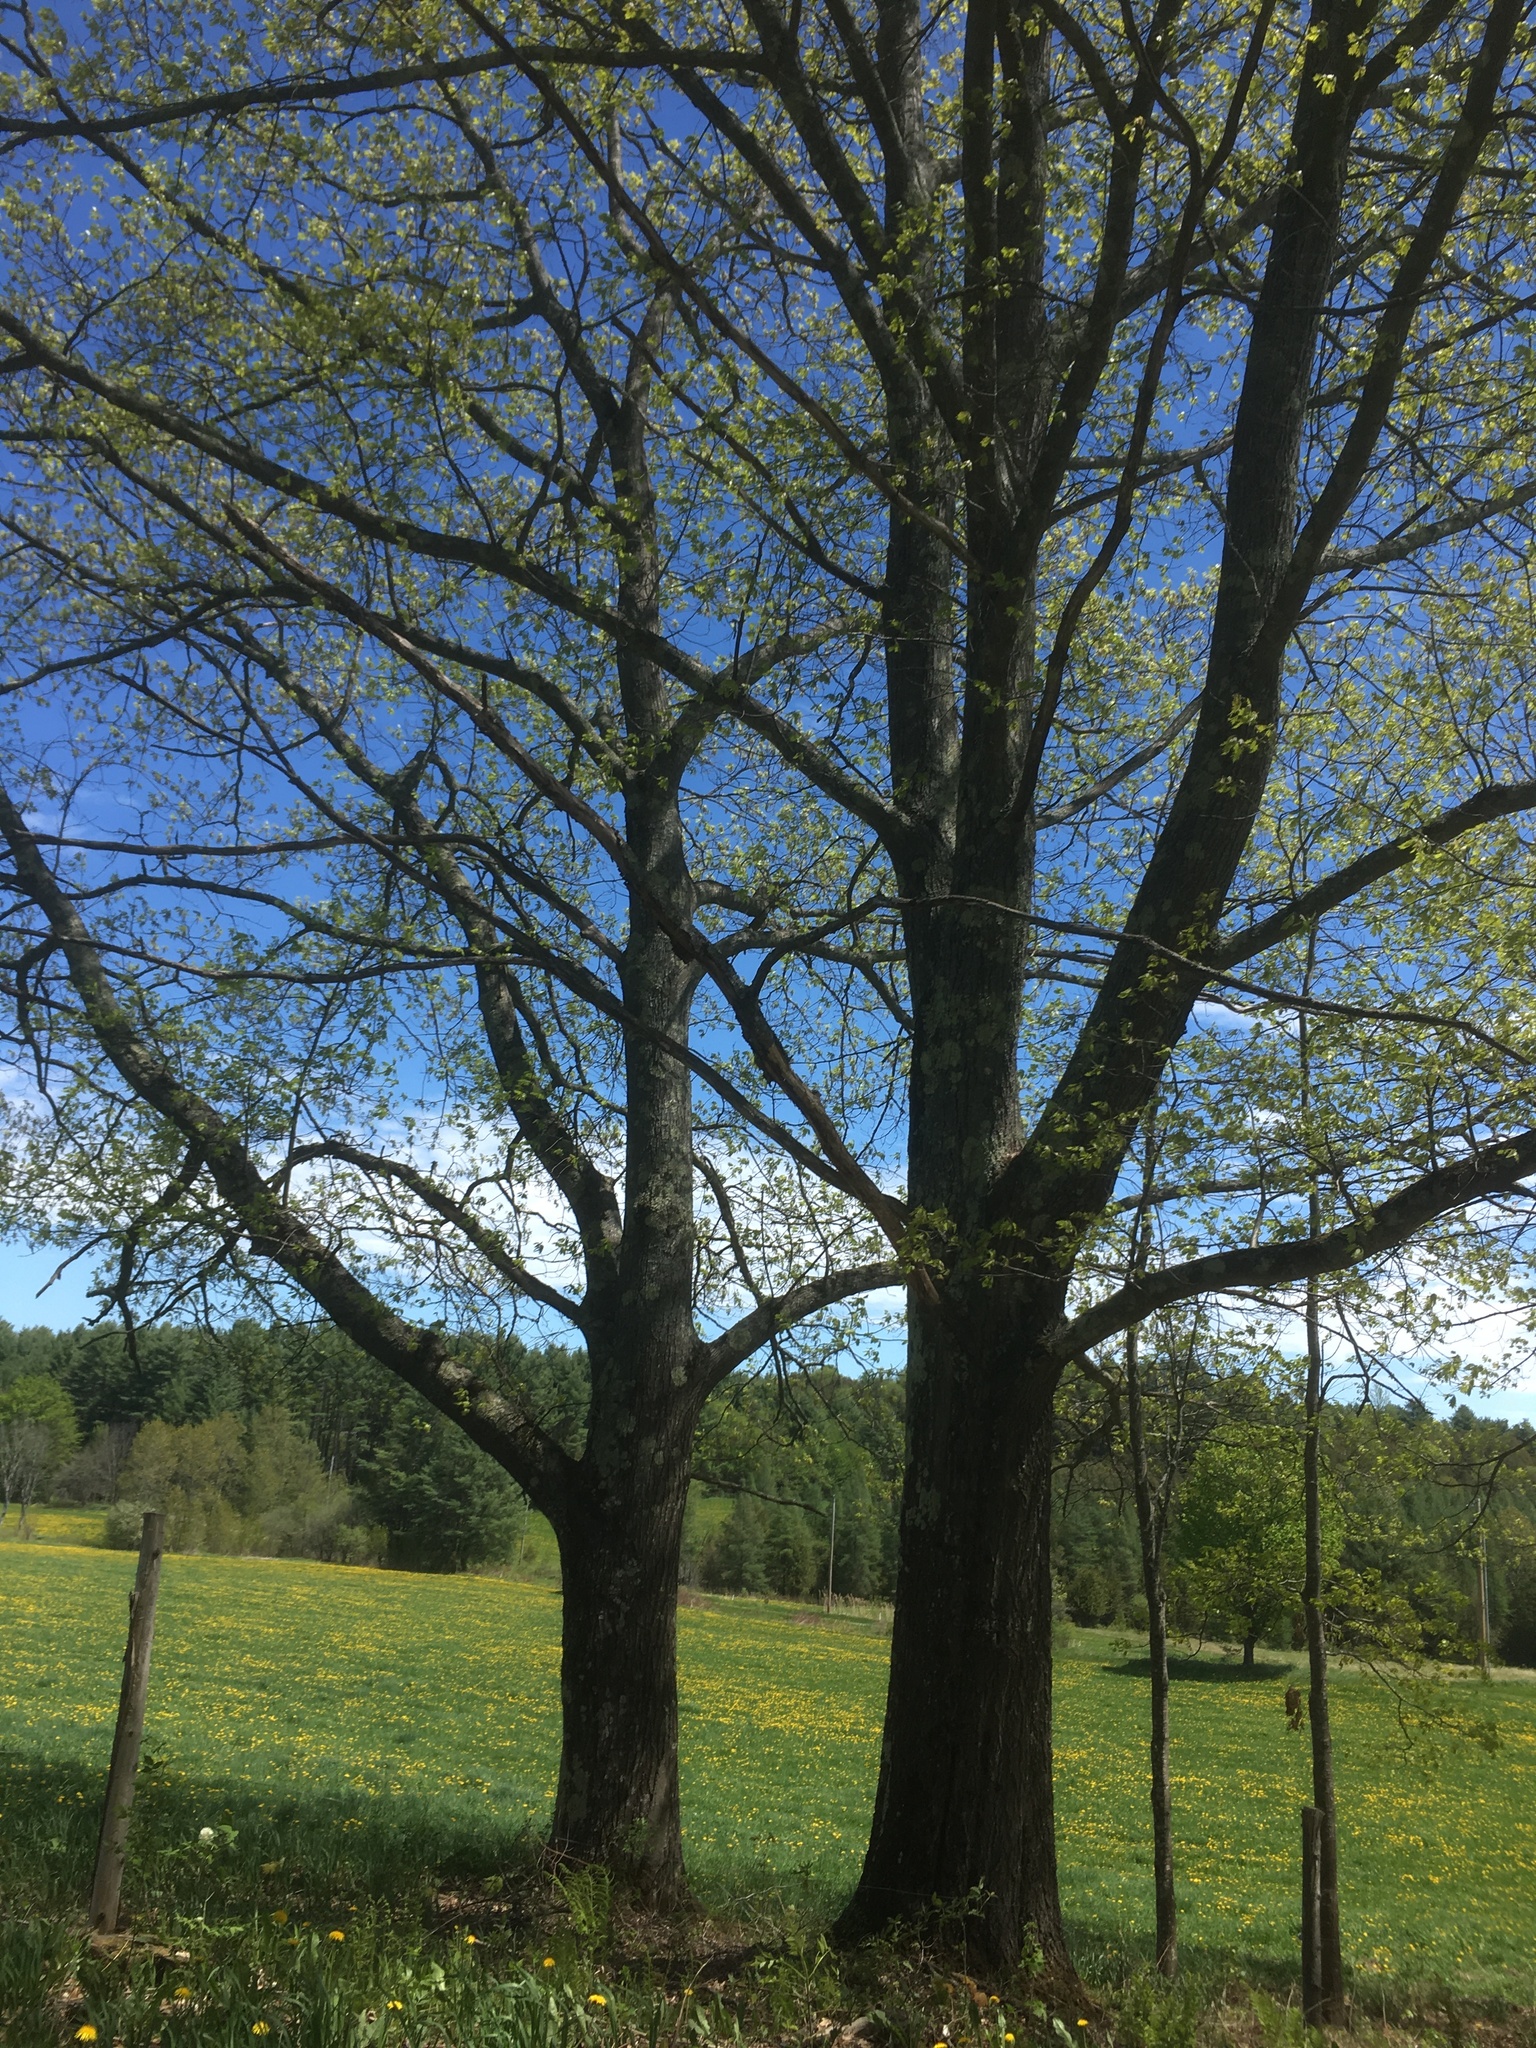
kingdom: Plantae
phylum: Tracheophyta
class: Magnoliopsida
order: Fagales
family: Fagaceae
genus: Quercus
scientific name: Quercus rubra
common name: Red oak
